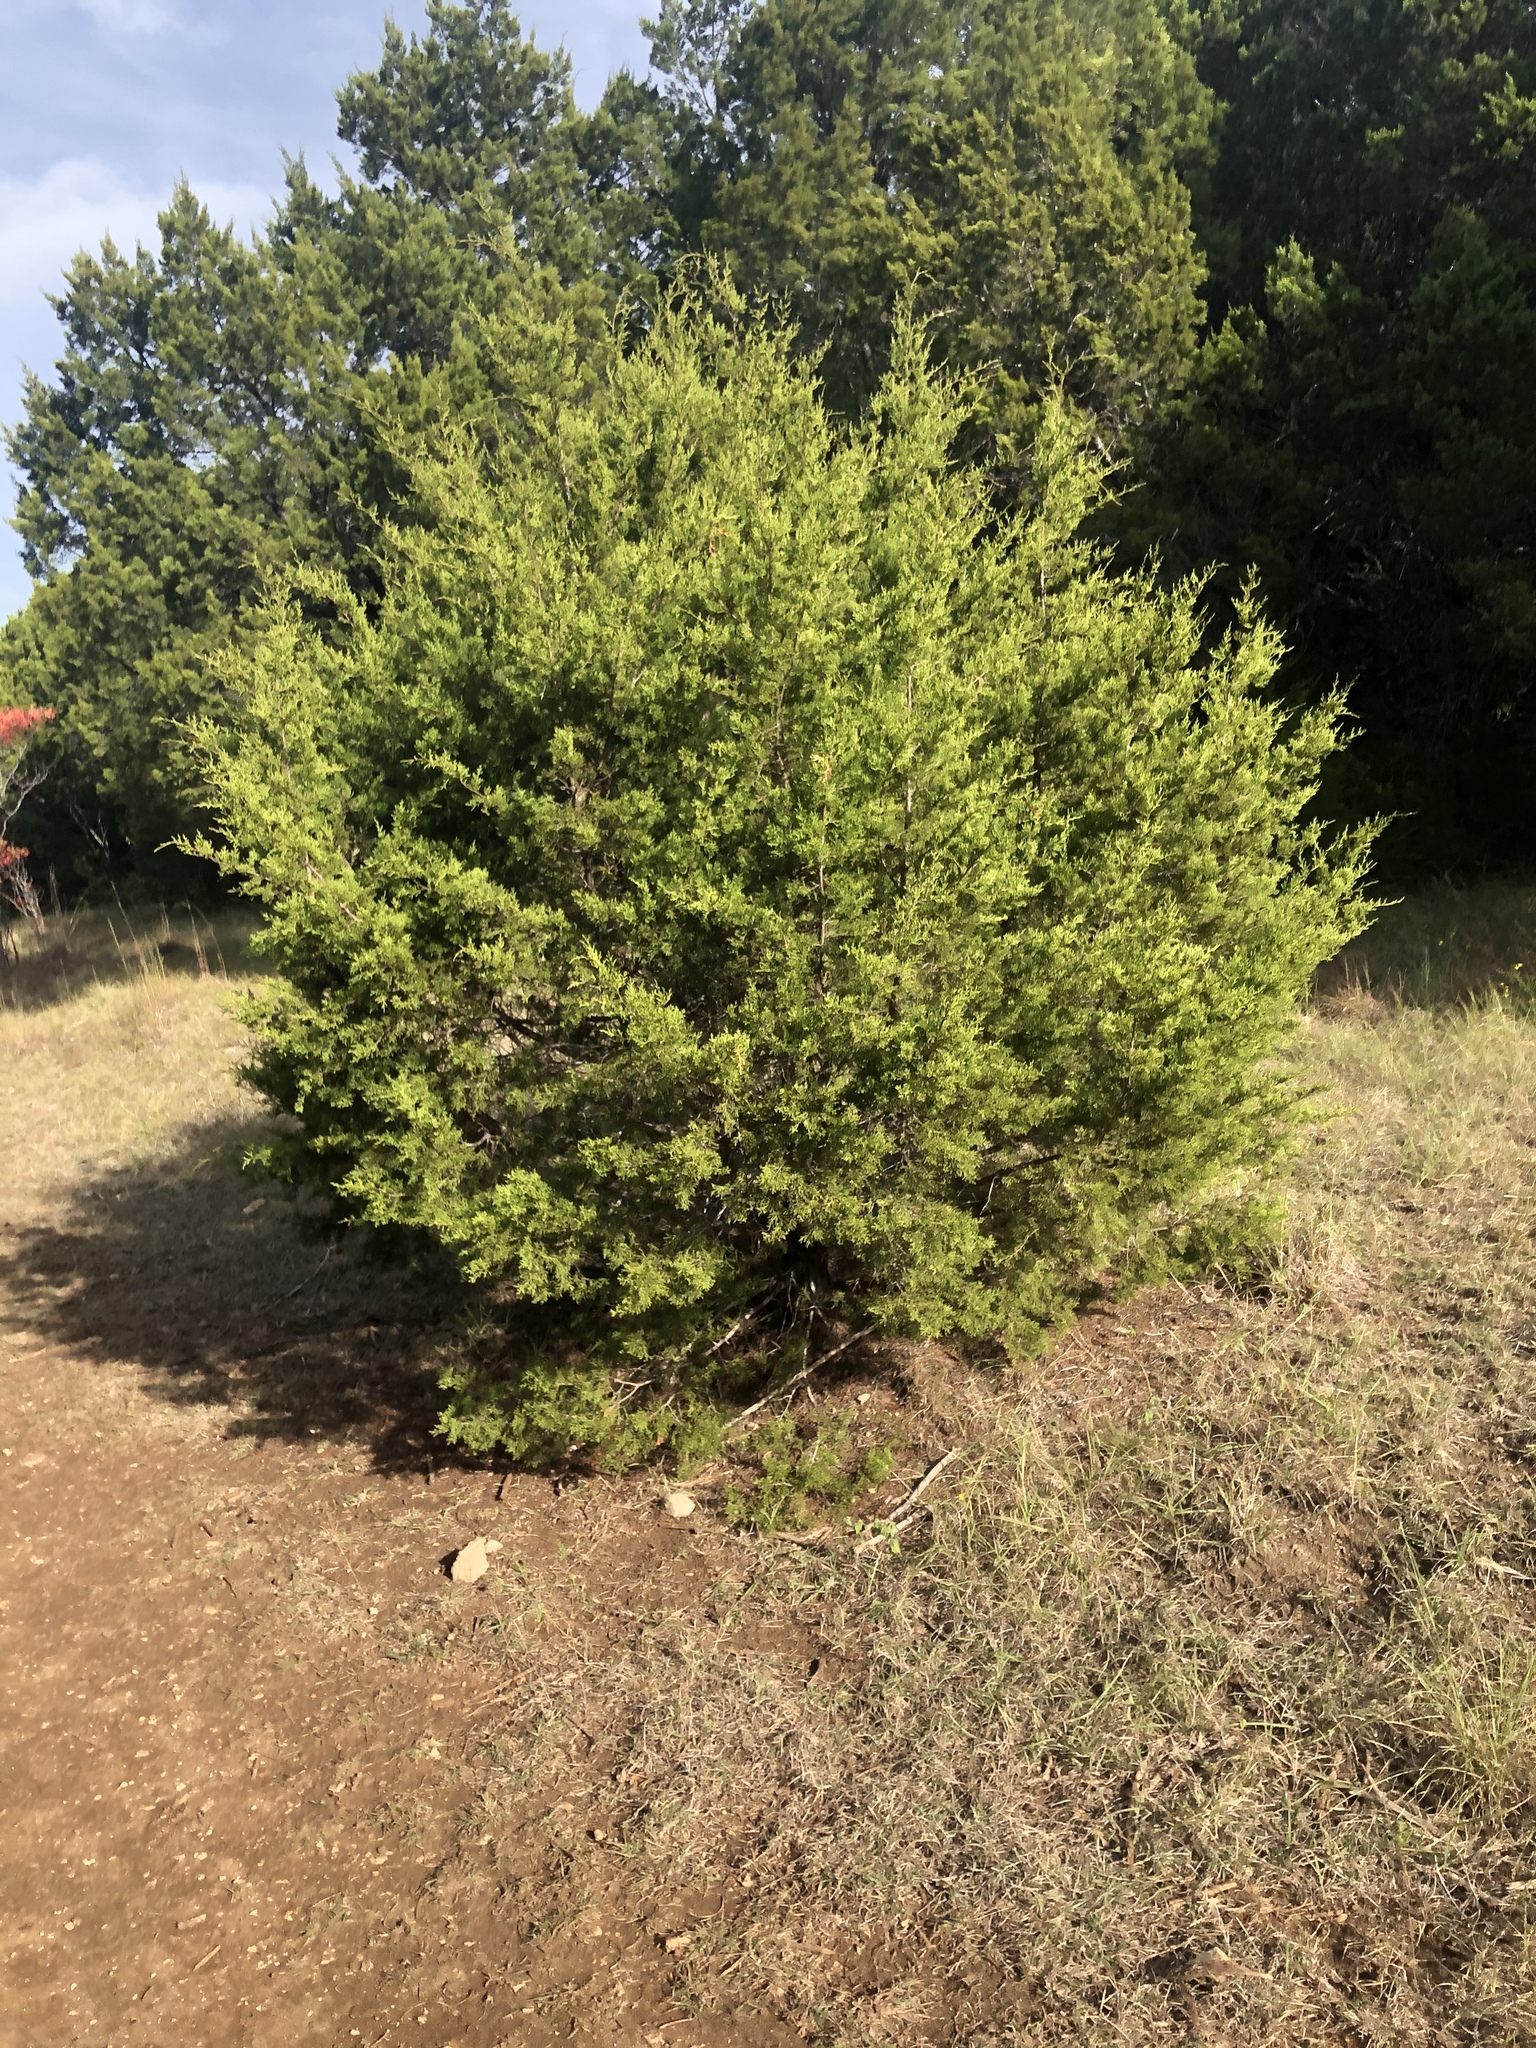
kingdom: Plantae
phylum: Tracheophyta
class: Pinopsida
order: Pinales
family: Cupressaceae
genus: Juniperus
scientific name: Juniperus ashei
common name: Mexican juniper
